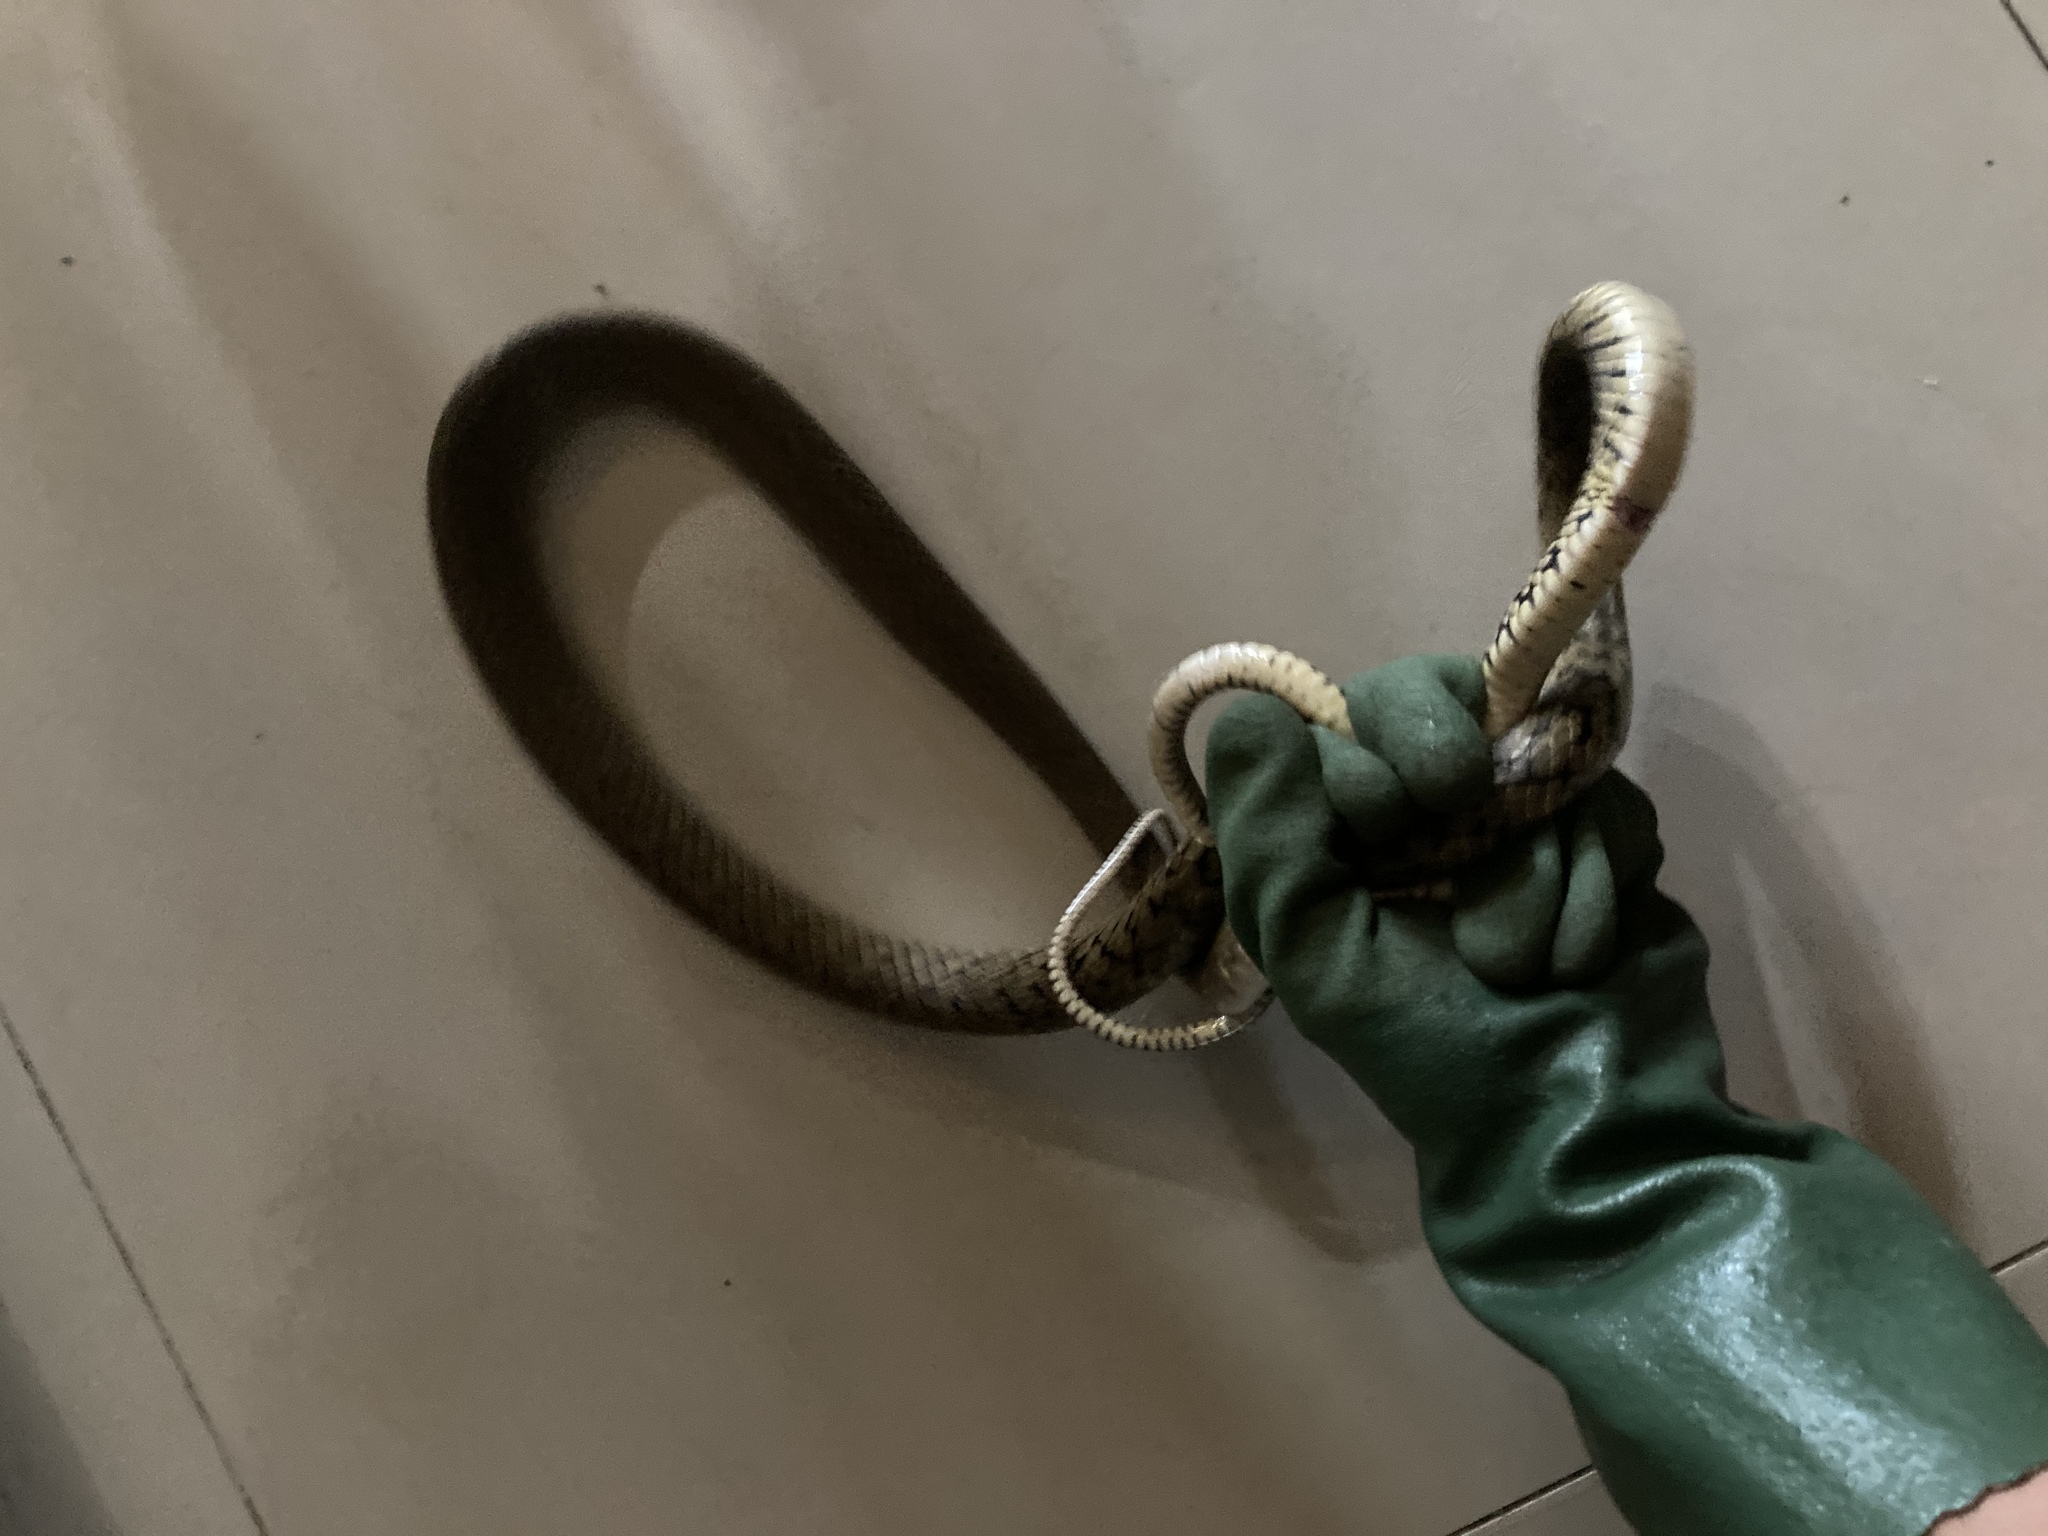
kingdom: Animalia
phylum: Chordata
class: Squamata
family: Colubridae
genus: Ptyas
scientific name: Ptyas mucosa
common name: Oriental ratsnake
